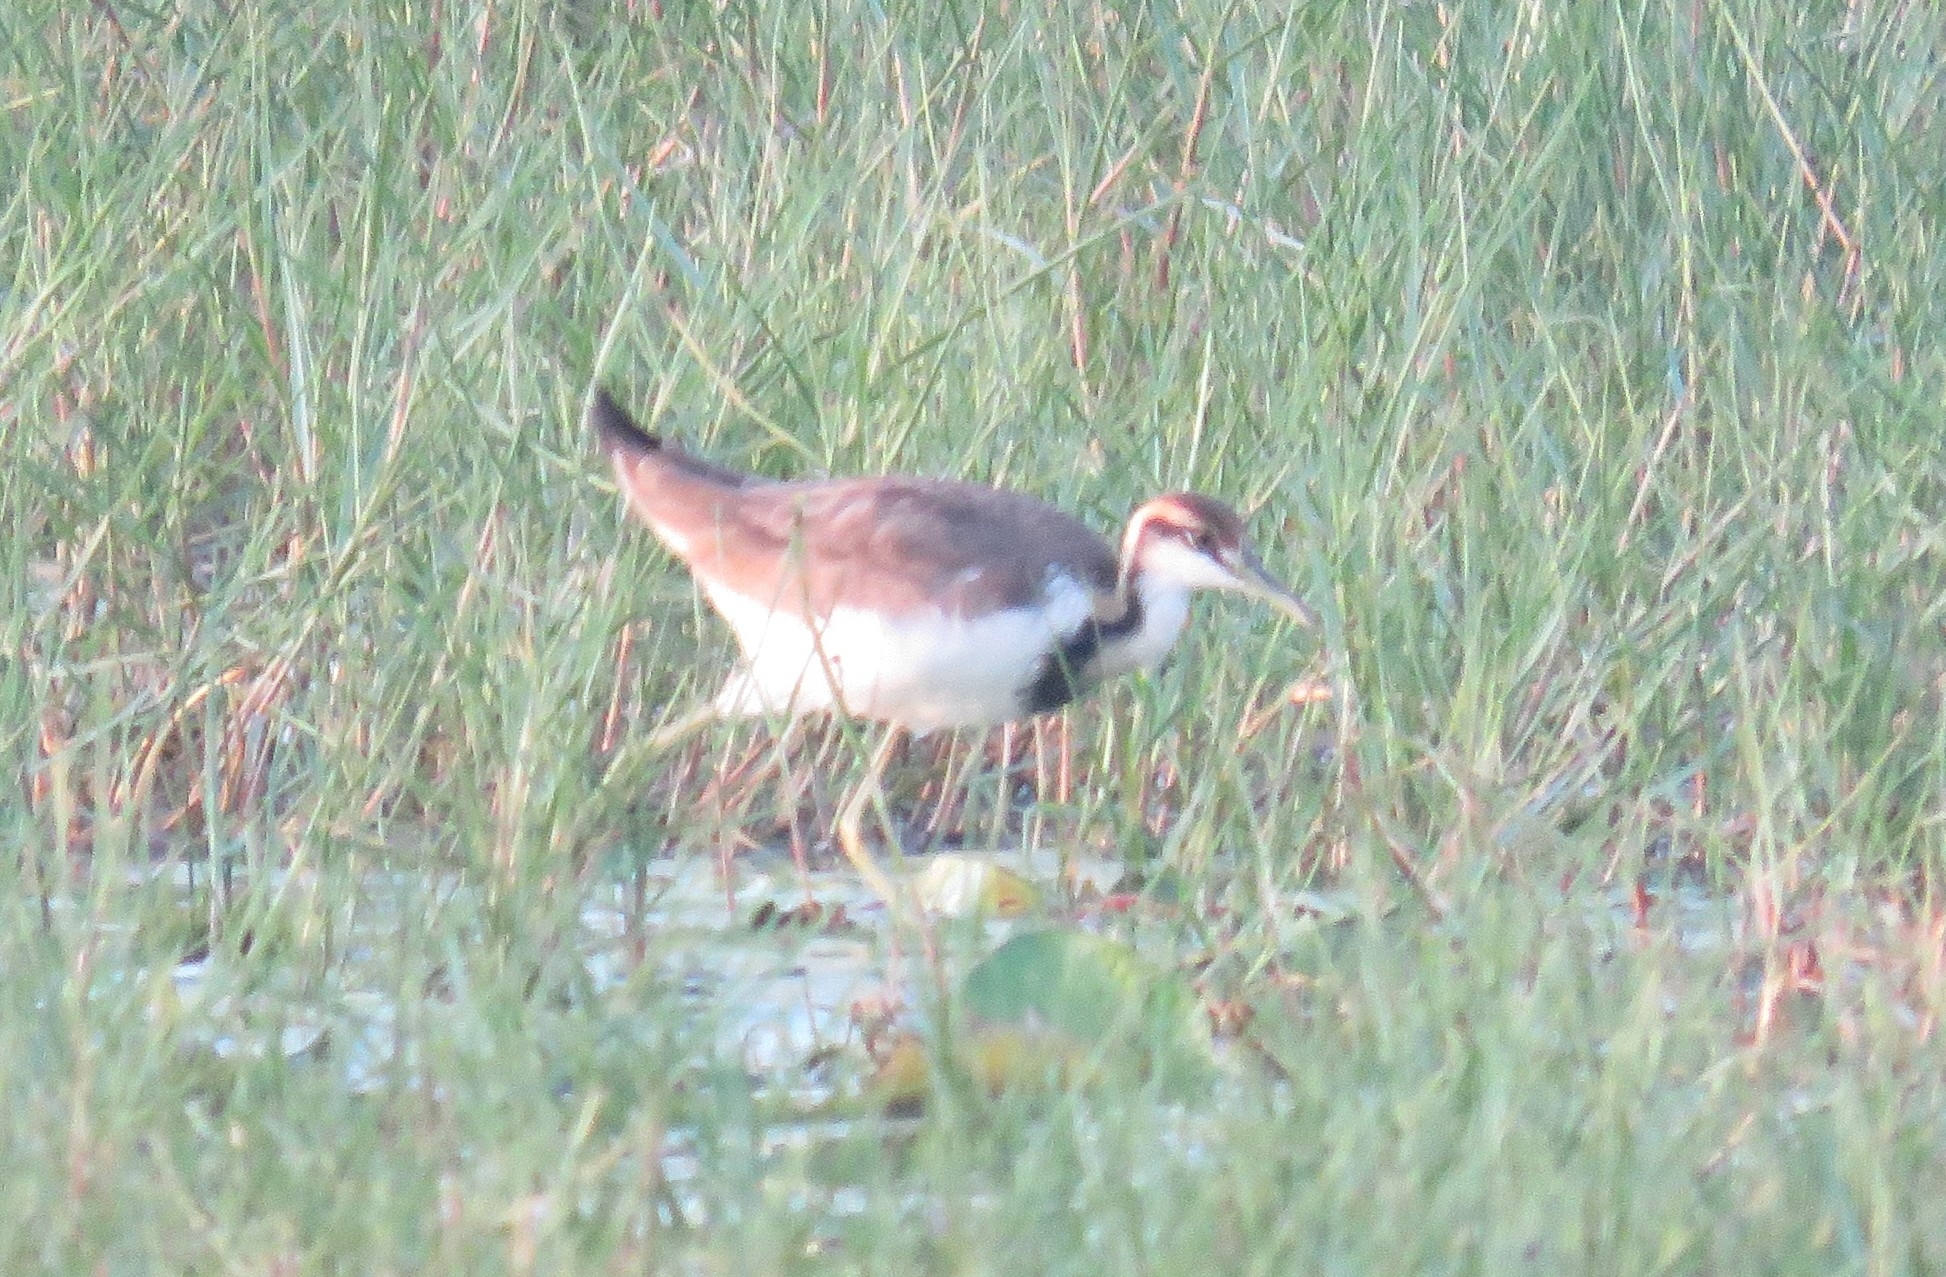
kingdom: Animalia
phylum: Chordata
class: Aves
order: Charadriiformes
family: Jacanidae
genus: Hydrophasianus
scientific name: Hydrophasianus chirurgus
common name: Pheasant-tailed jacana
